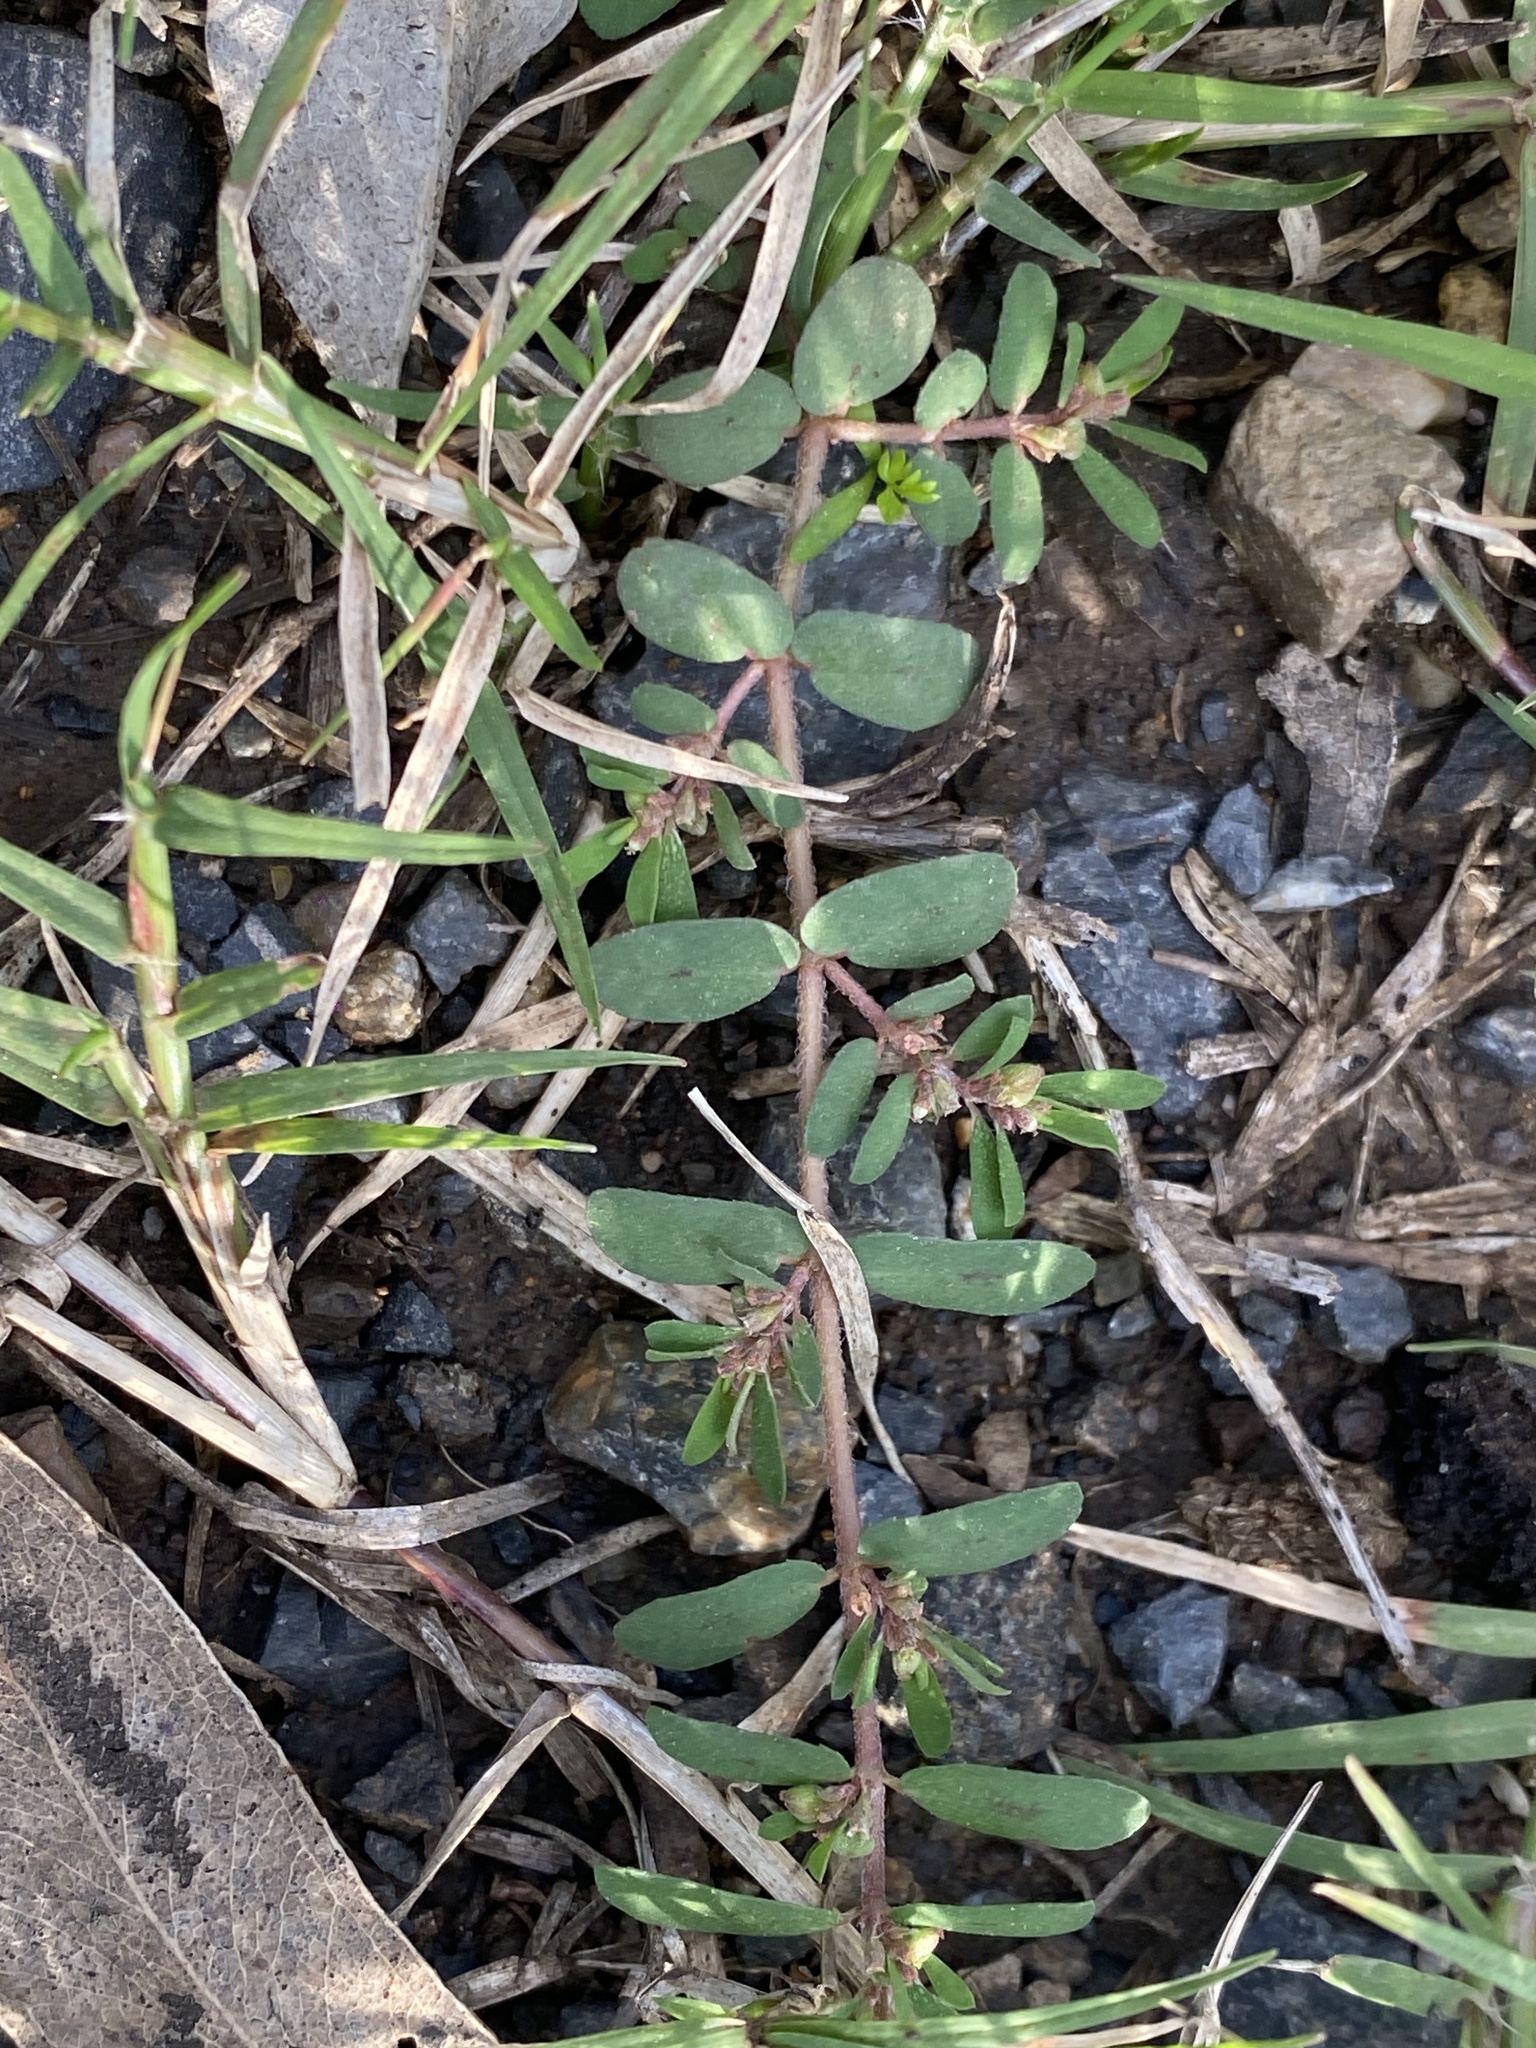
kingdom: Plantae
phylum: Tracheophyta
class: Magnoliopsida
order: Malpighiales
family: Euphorbiaceae
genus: Euphorbia
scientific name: Euphorbia maculata
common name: Spotted spurge
